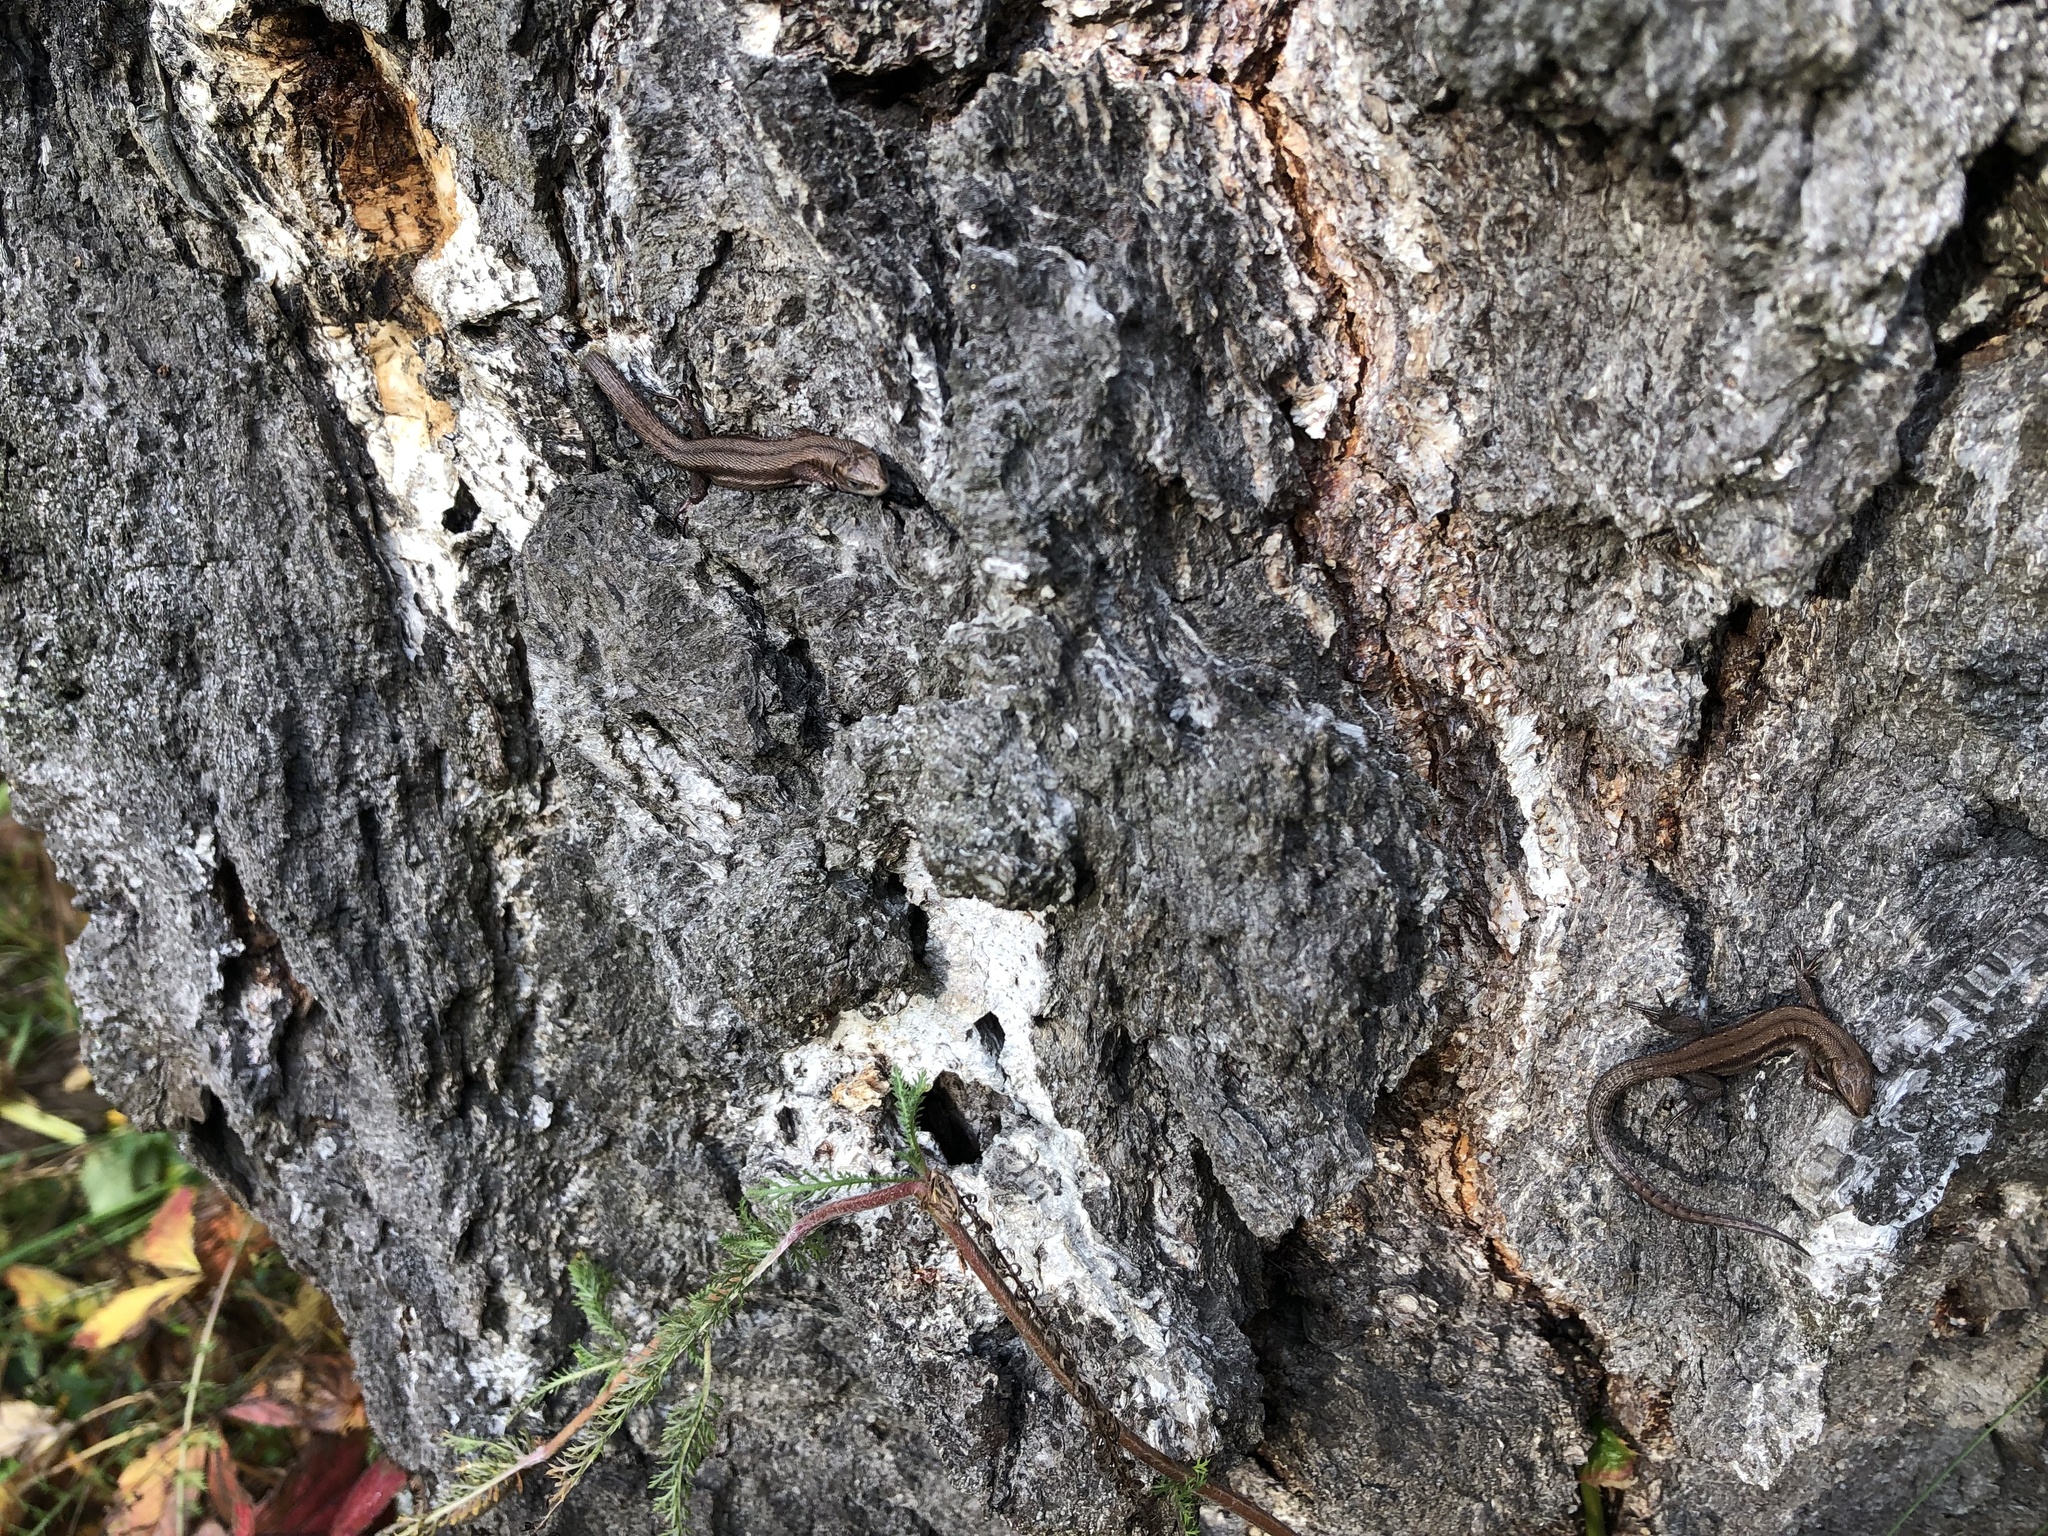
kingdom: Animalia
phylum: Chordata
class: Squamata
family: Lacertidae
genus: Zootoca
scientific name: Zootoca vivipara
